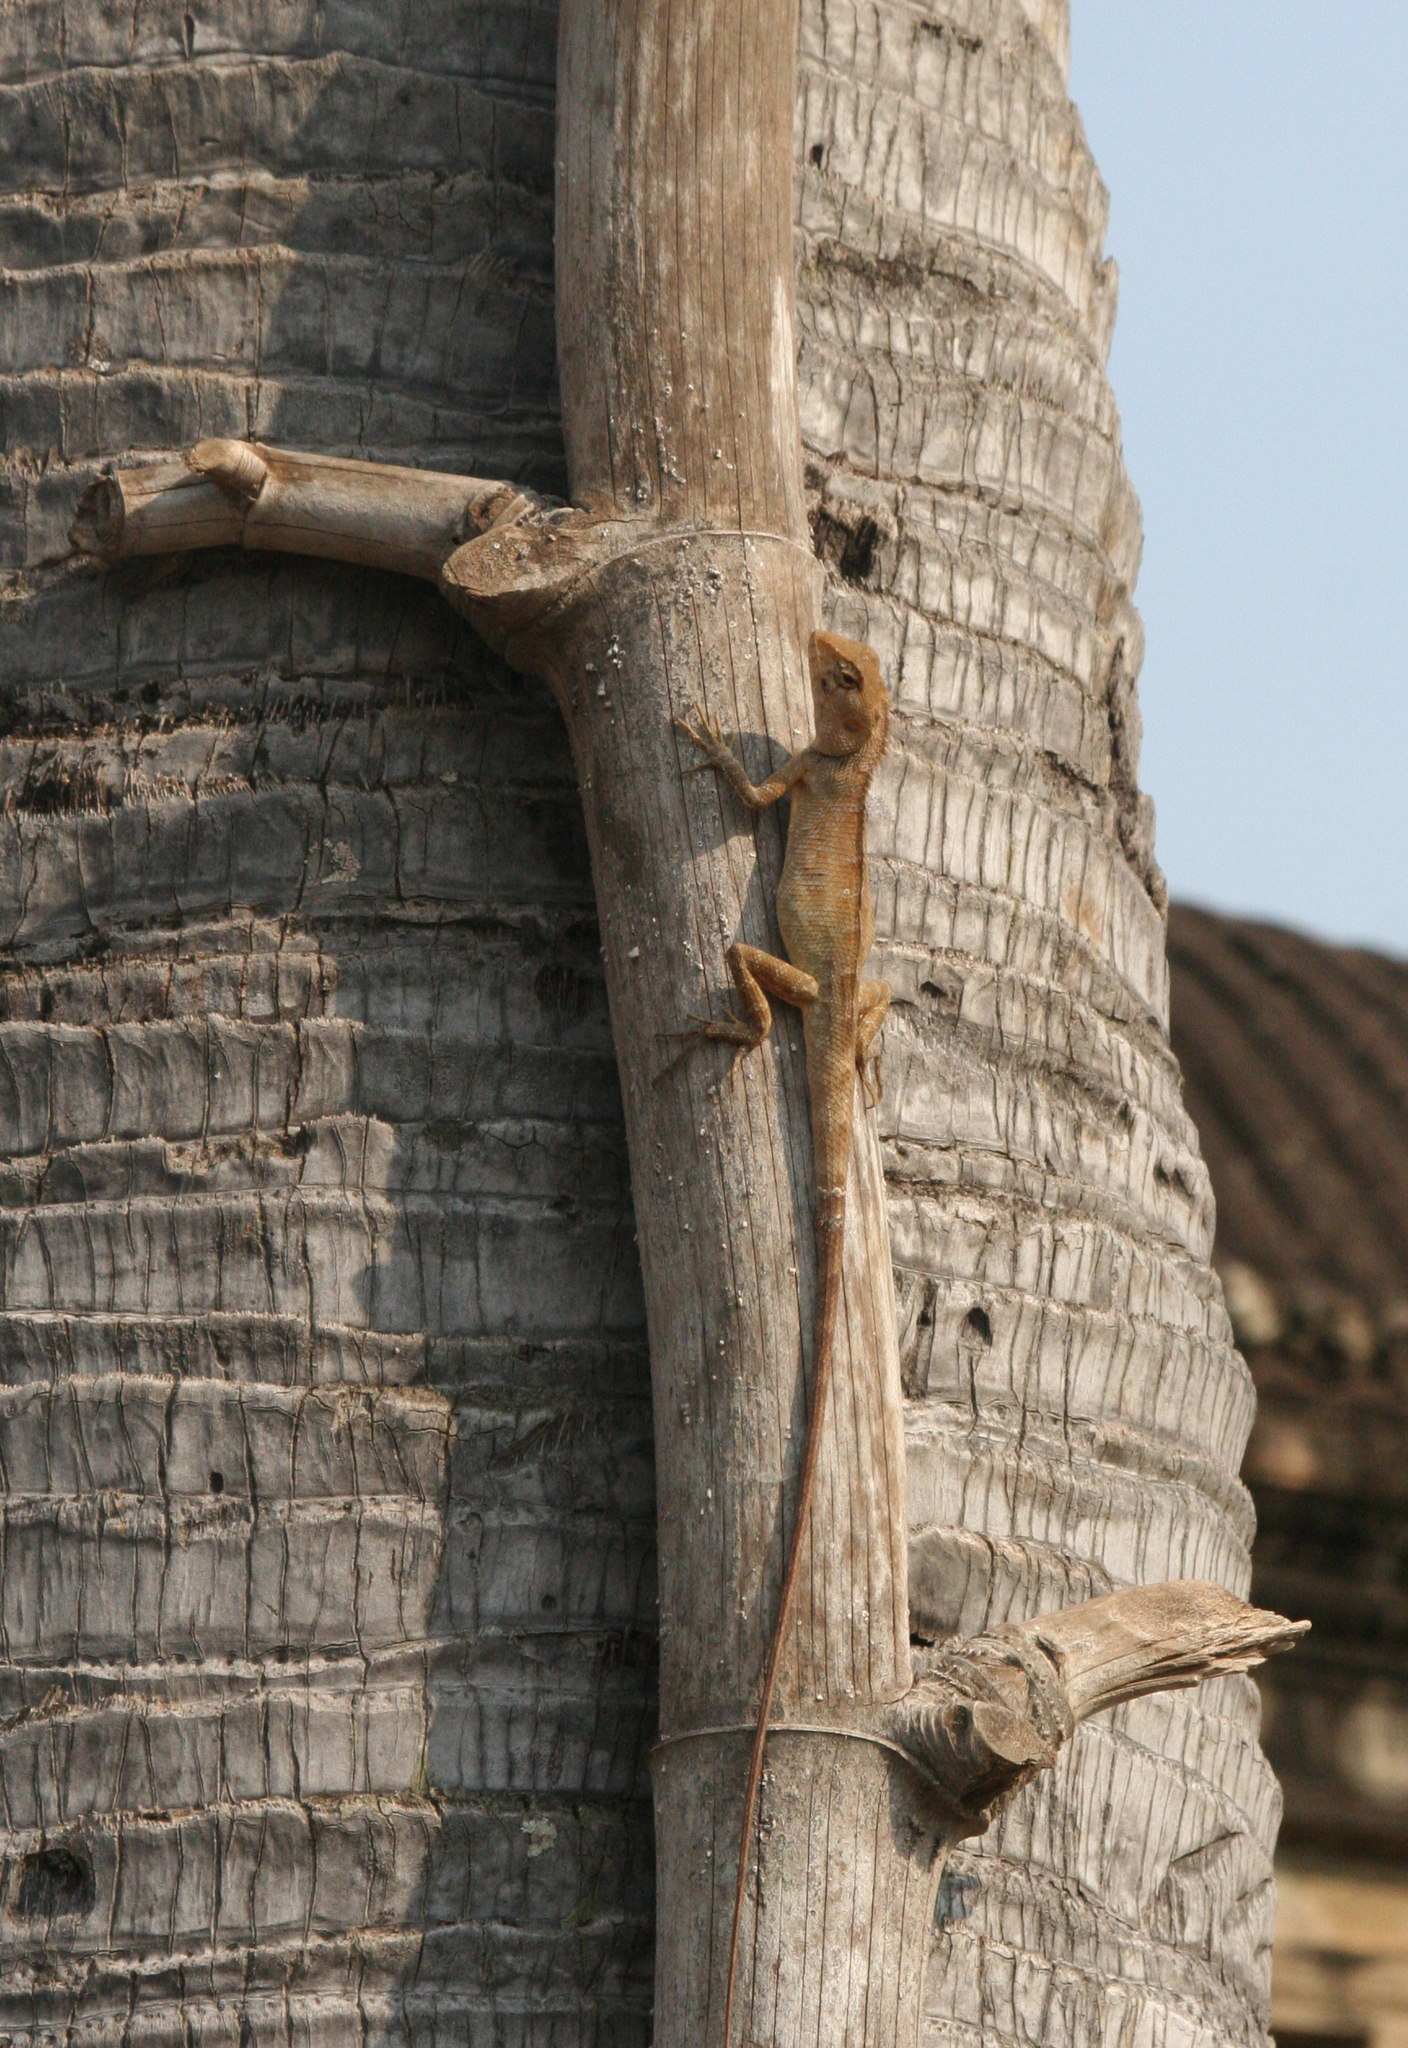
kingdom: Animalia
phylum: Chordata
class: Squamata
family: Agamidae
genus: Calotes
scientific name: Calotes versicolor
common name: Oriental garden lizard
